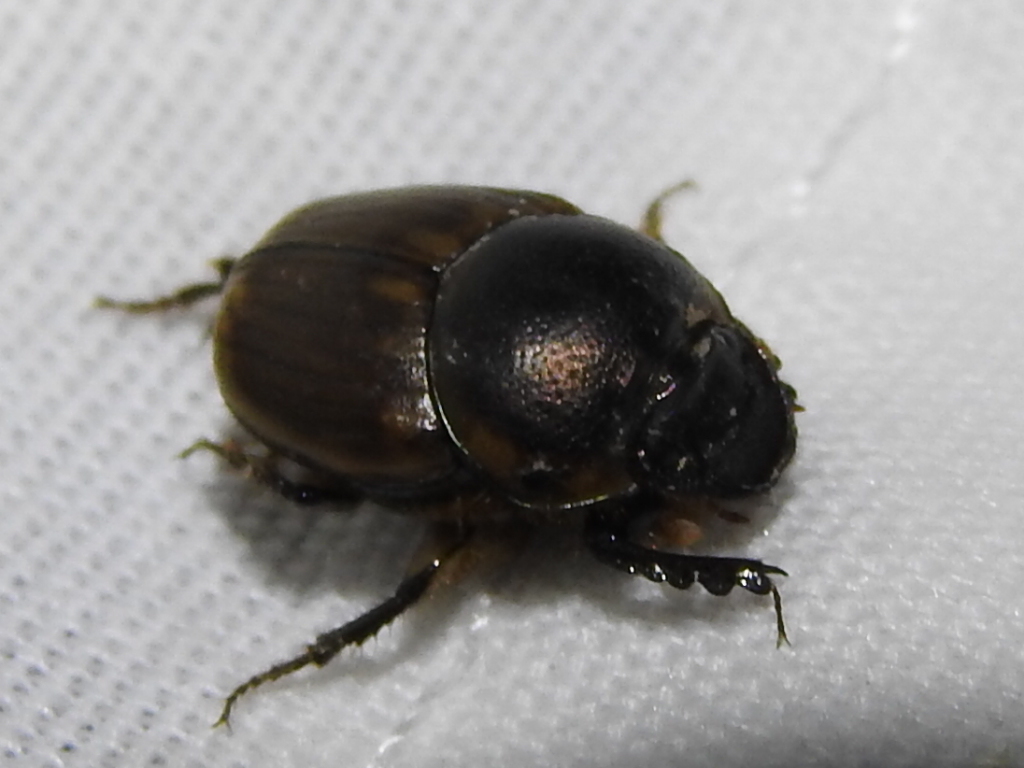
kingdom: Animalia
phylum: Arthropoda
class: Insecta
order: Coleoptera
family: Scarabaeidae
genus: Digitonthophagus
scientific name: Digitonthophagus gazella
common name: Brown dung beetle
